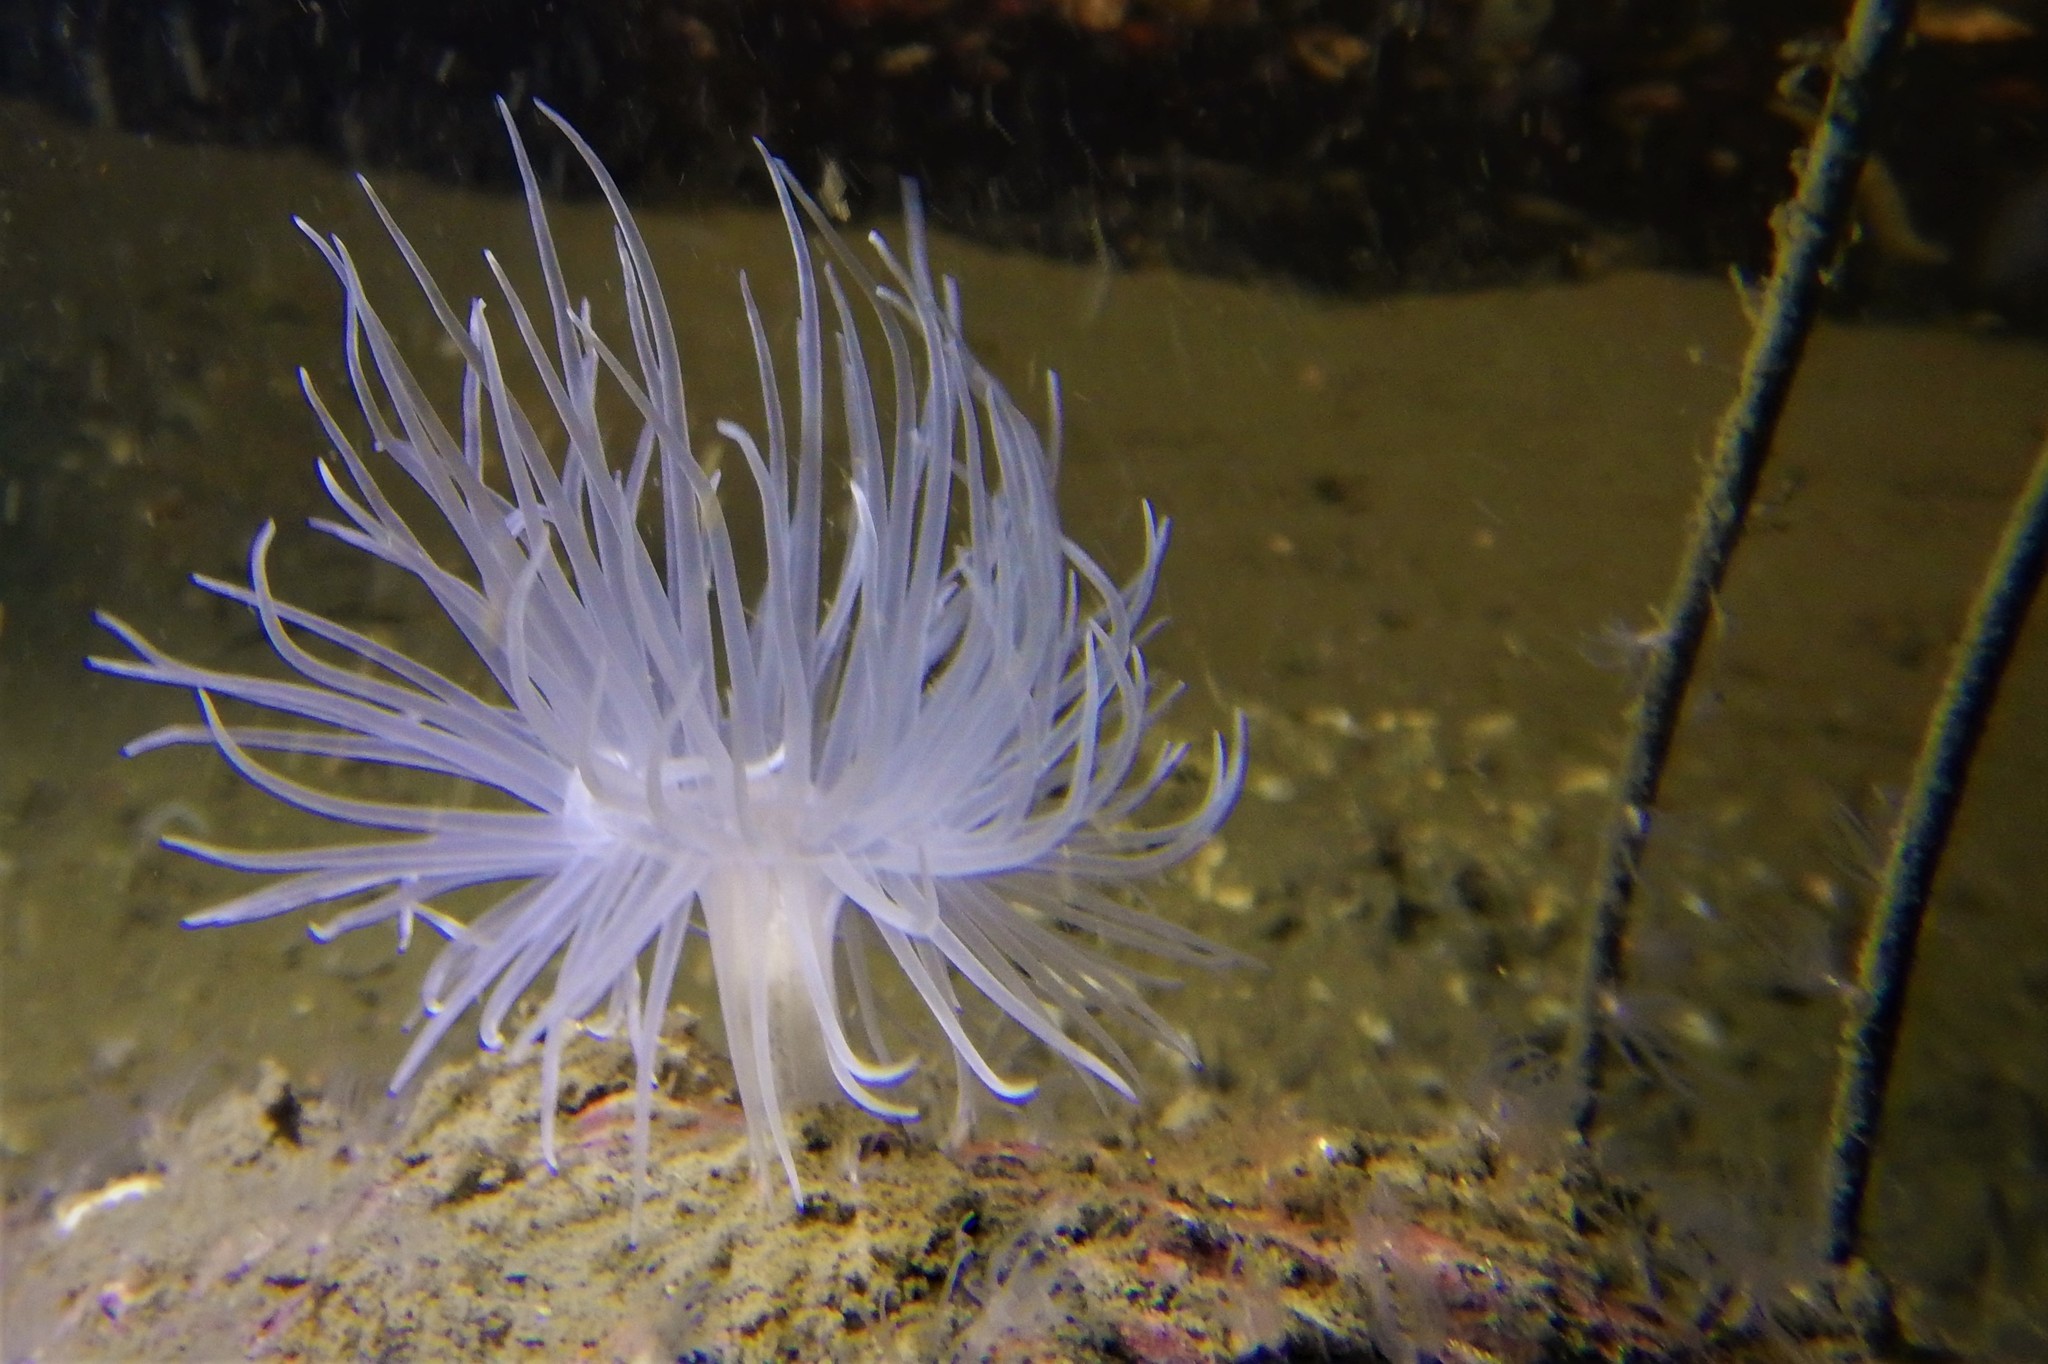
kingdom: Animalia
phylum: Cnidaria
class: Anthozoa
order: Actiniaria
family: Gonactiniidae
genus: Protanthea
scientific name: Protanthea simplex
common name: Sealoch anemone
